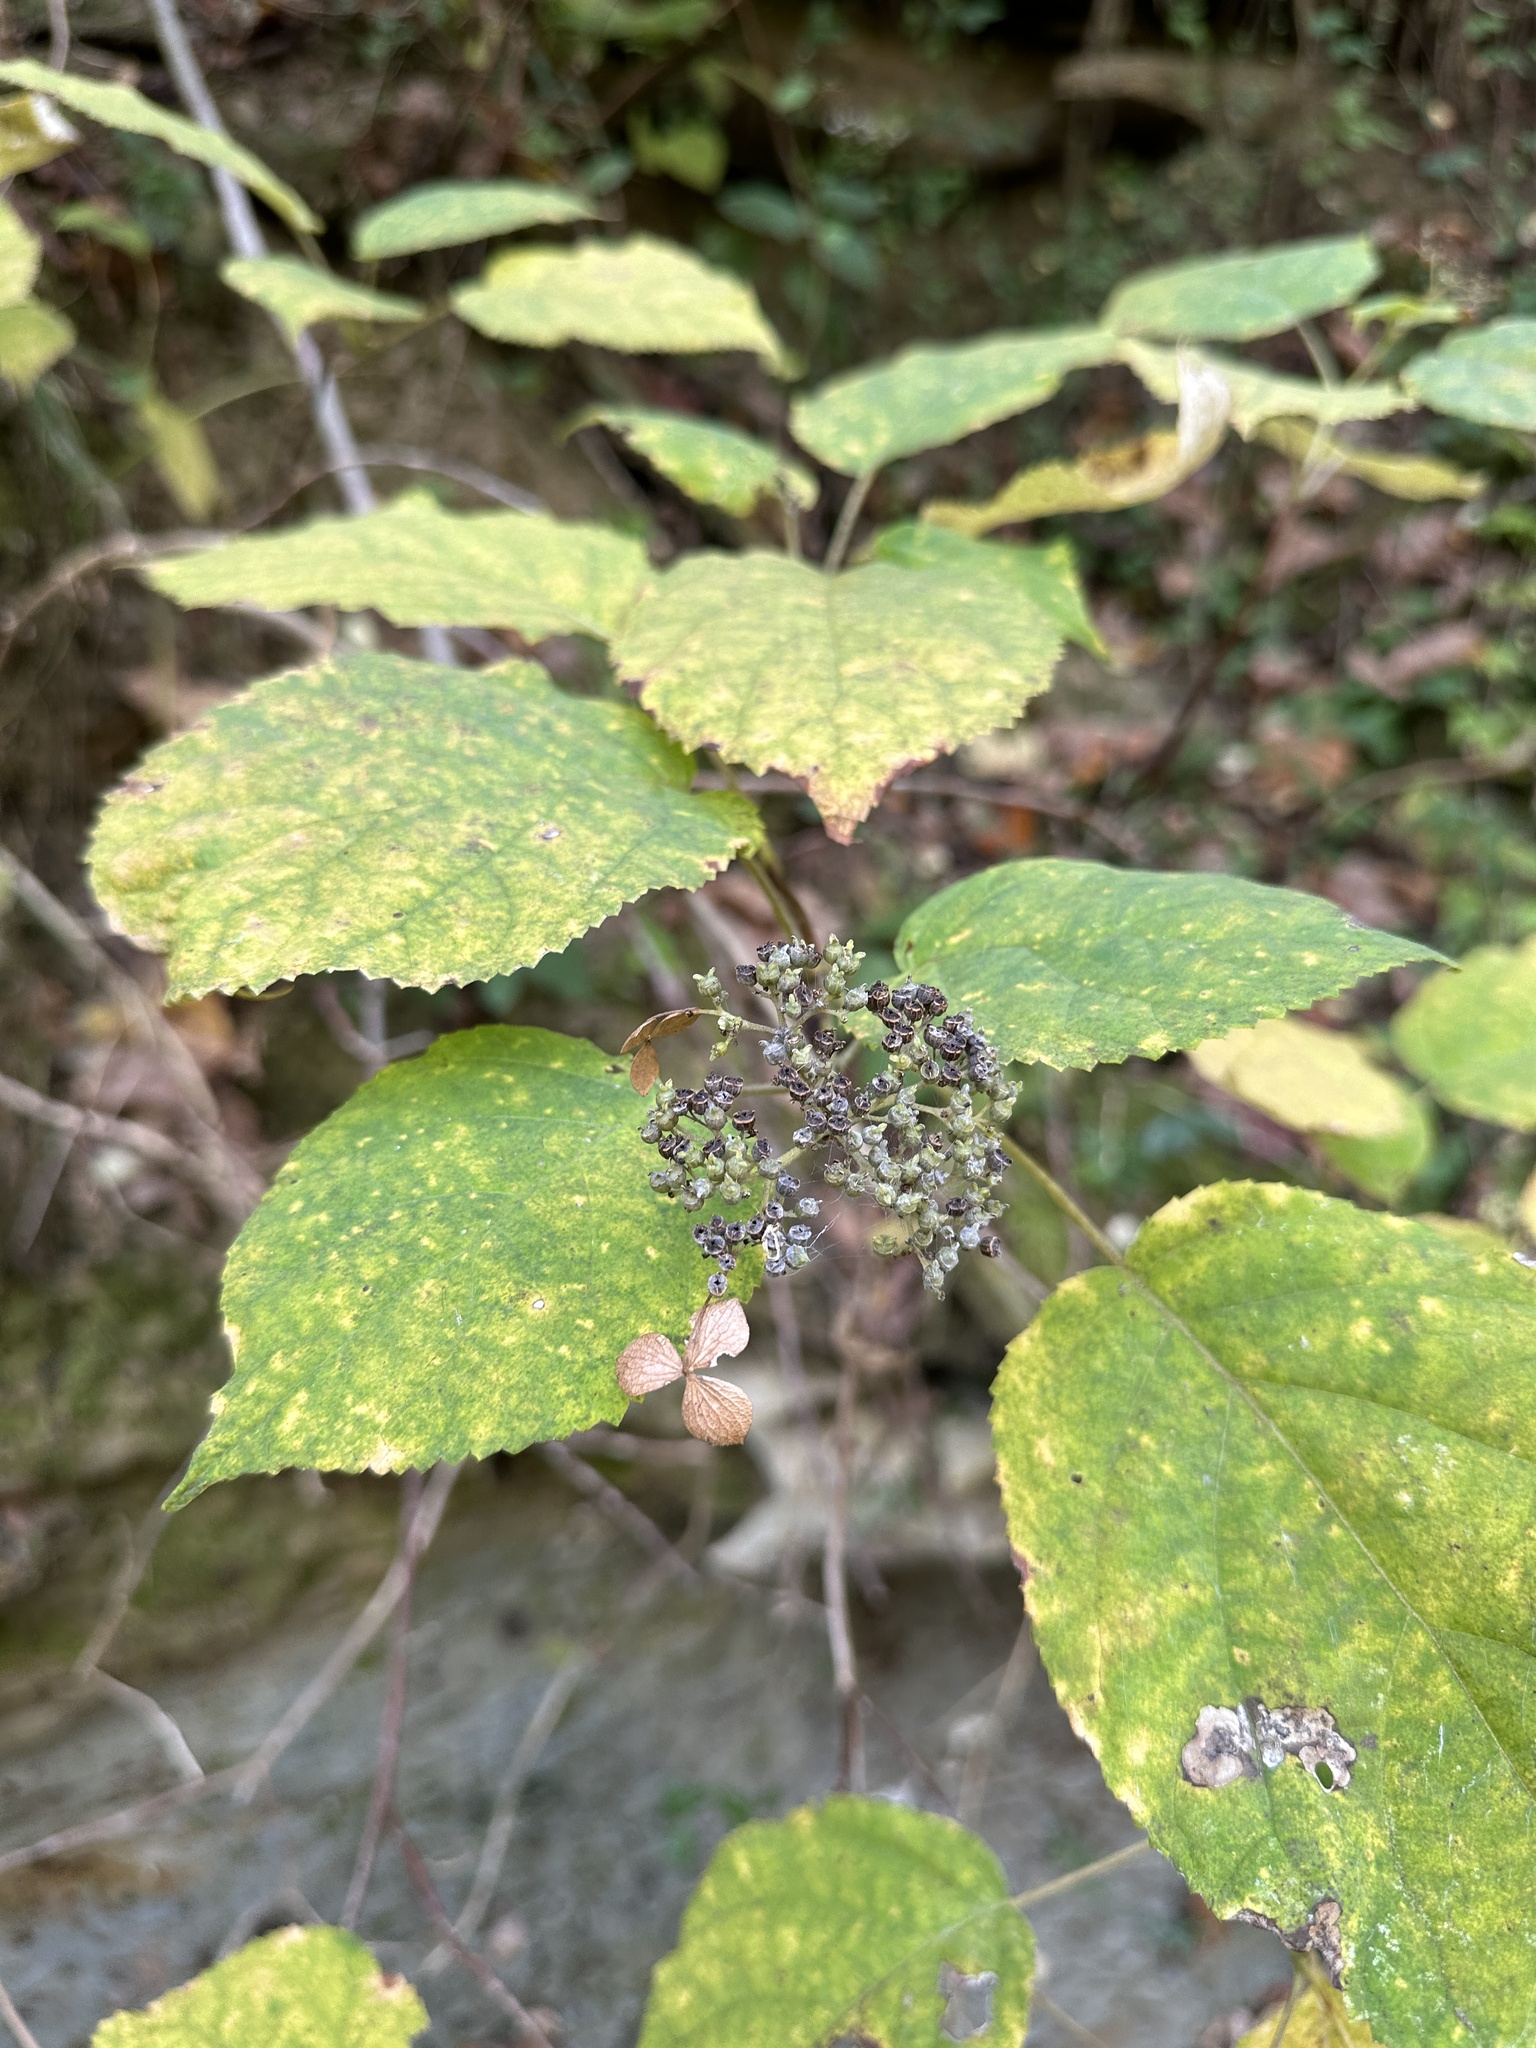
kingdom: Plantae
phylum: Tracheophyta
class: Magnoliopsida
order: Cornales
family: Hydrangeaceae
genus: Hydrangea
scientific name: Hydrangea arborescens
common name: Sevenbark
